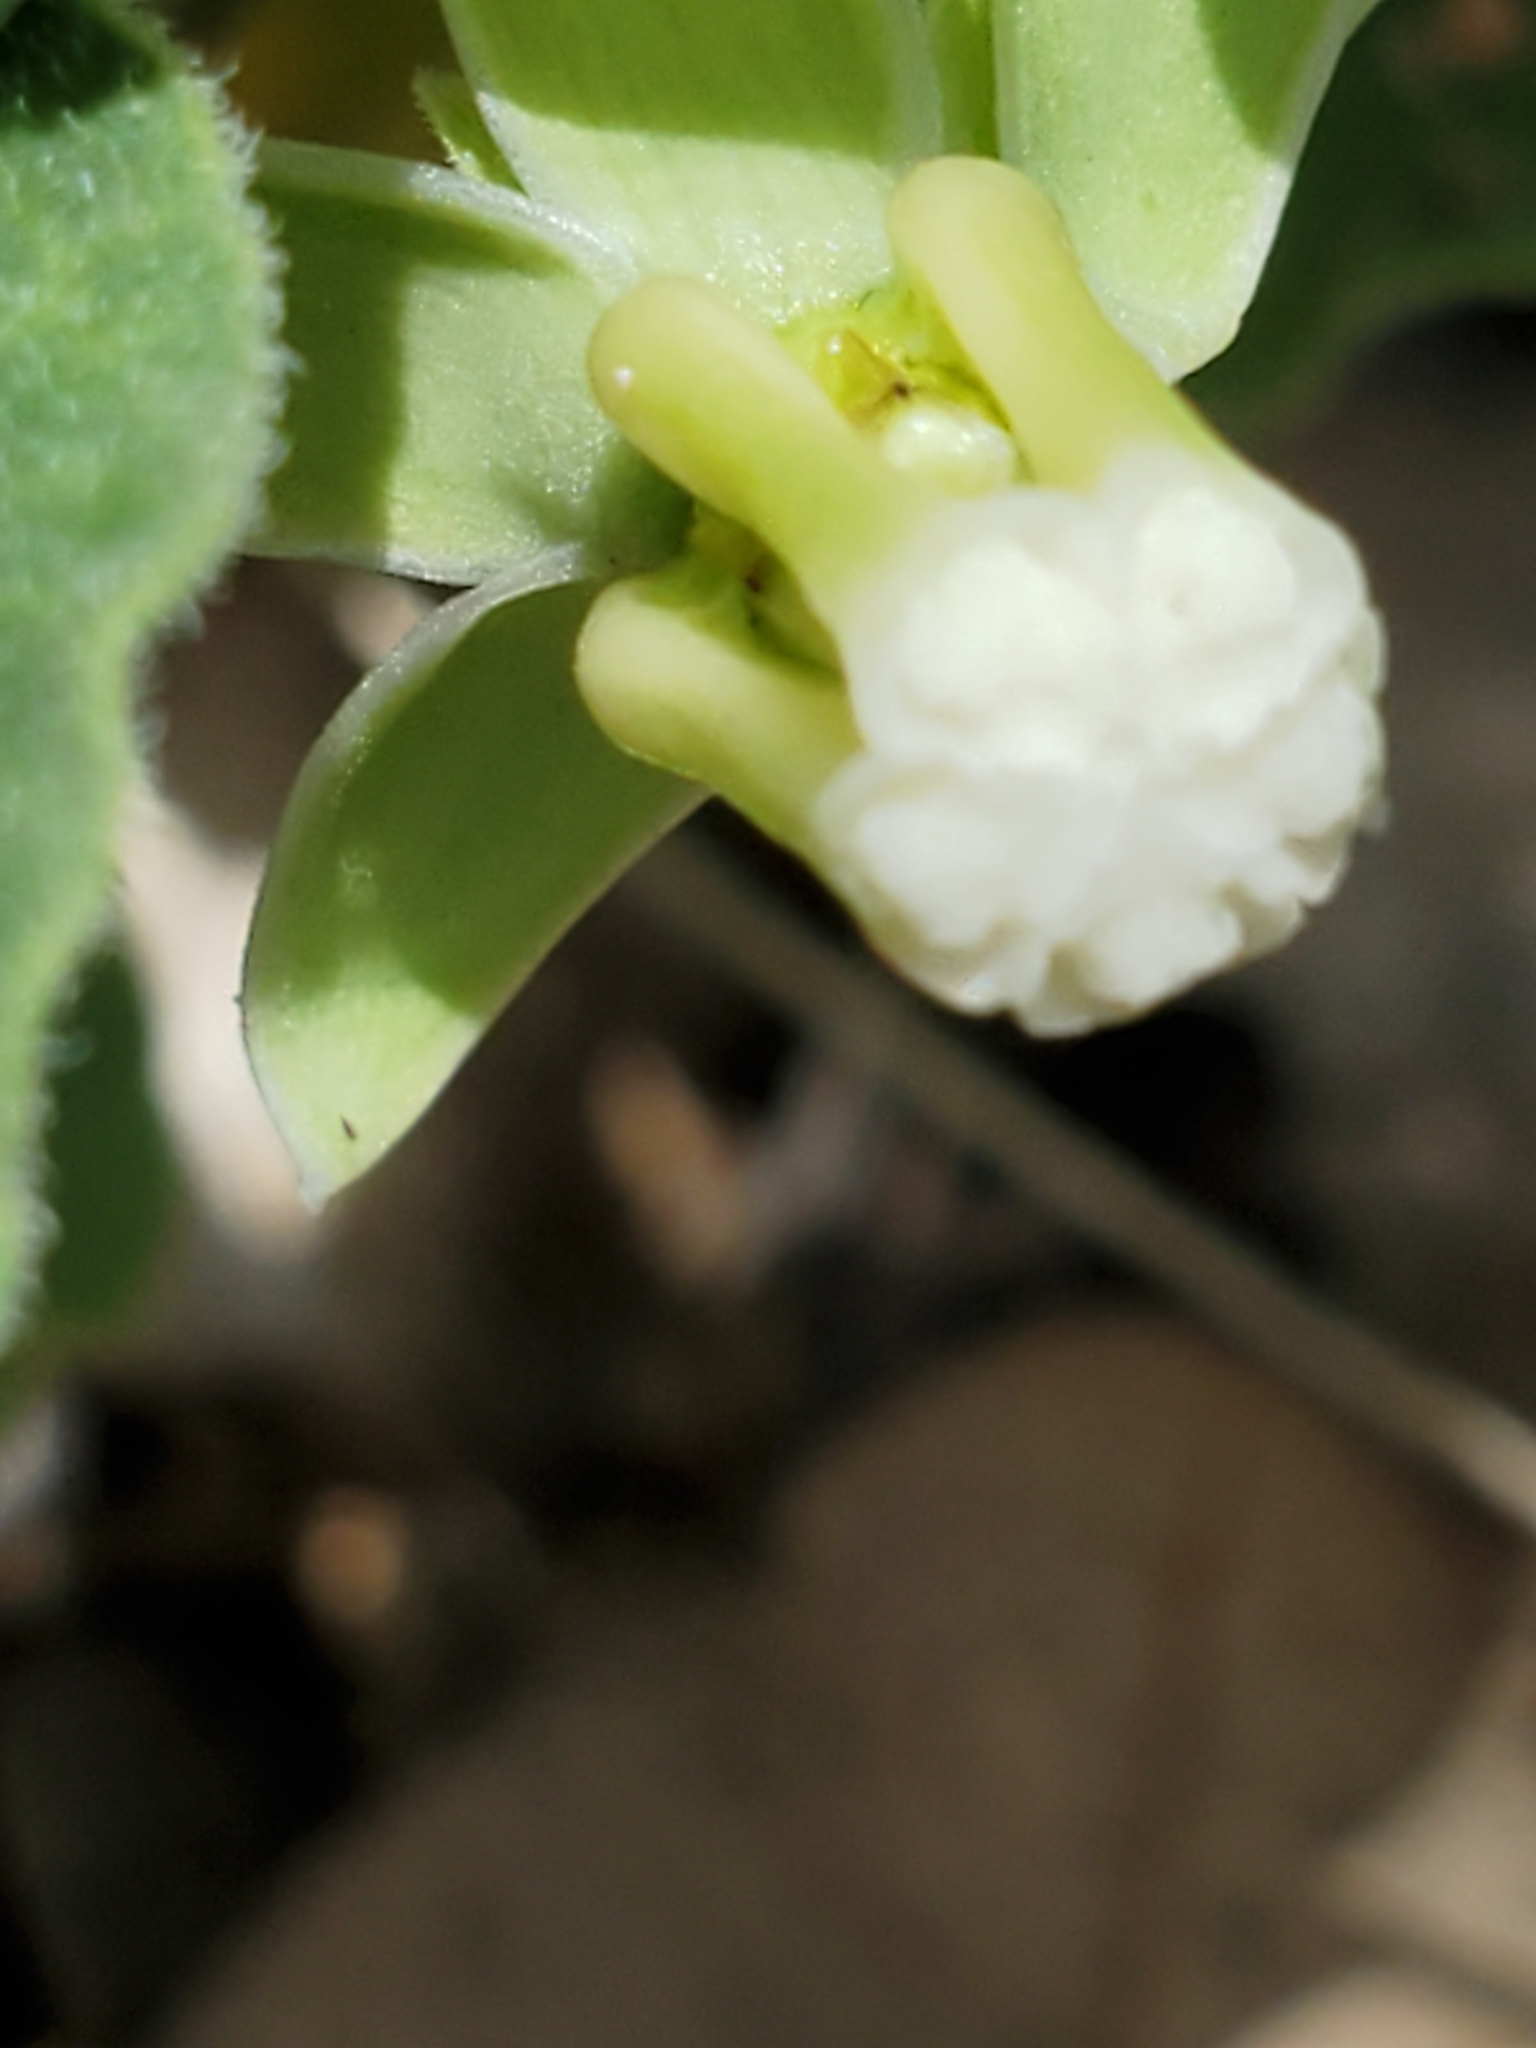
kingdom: Plantae
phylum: Tracheophyta
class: Magnoliopsida
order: Gentianales
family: Apocynaceae
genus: Asclepias
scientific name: Asclepias emoryi
